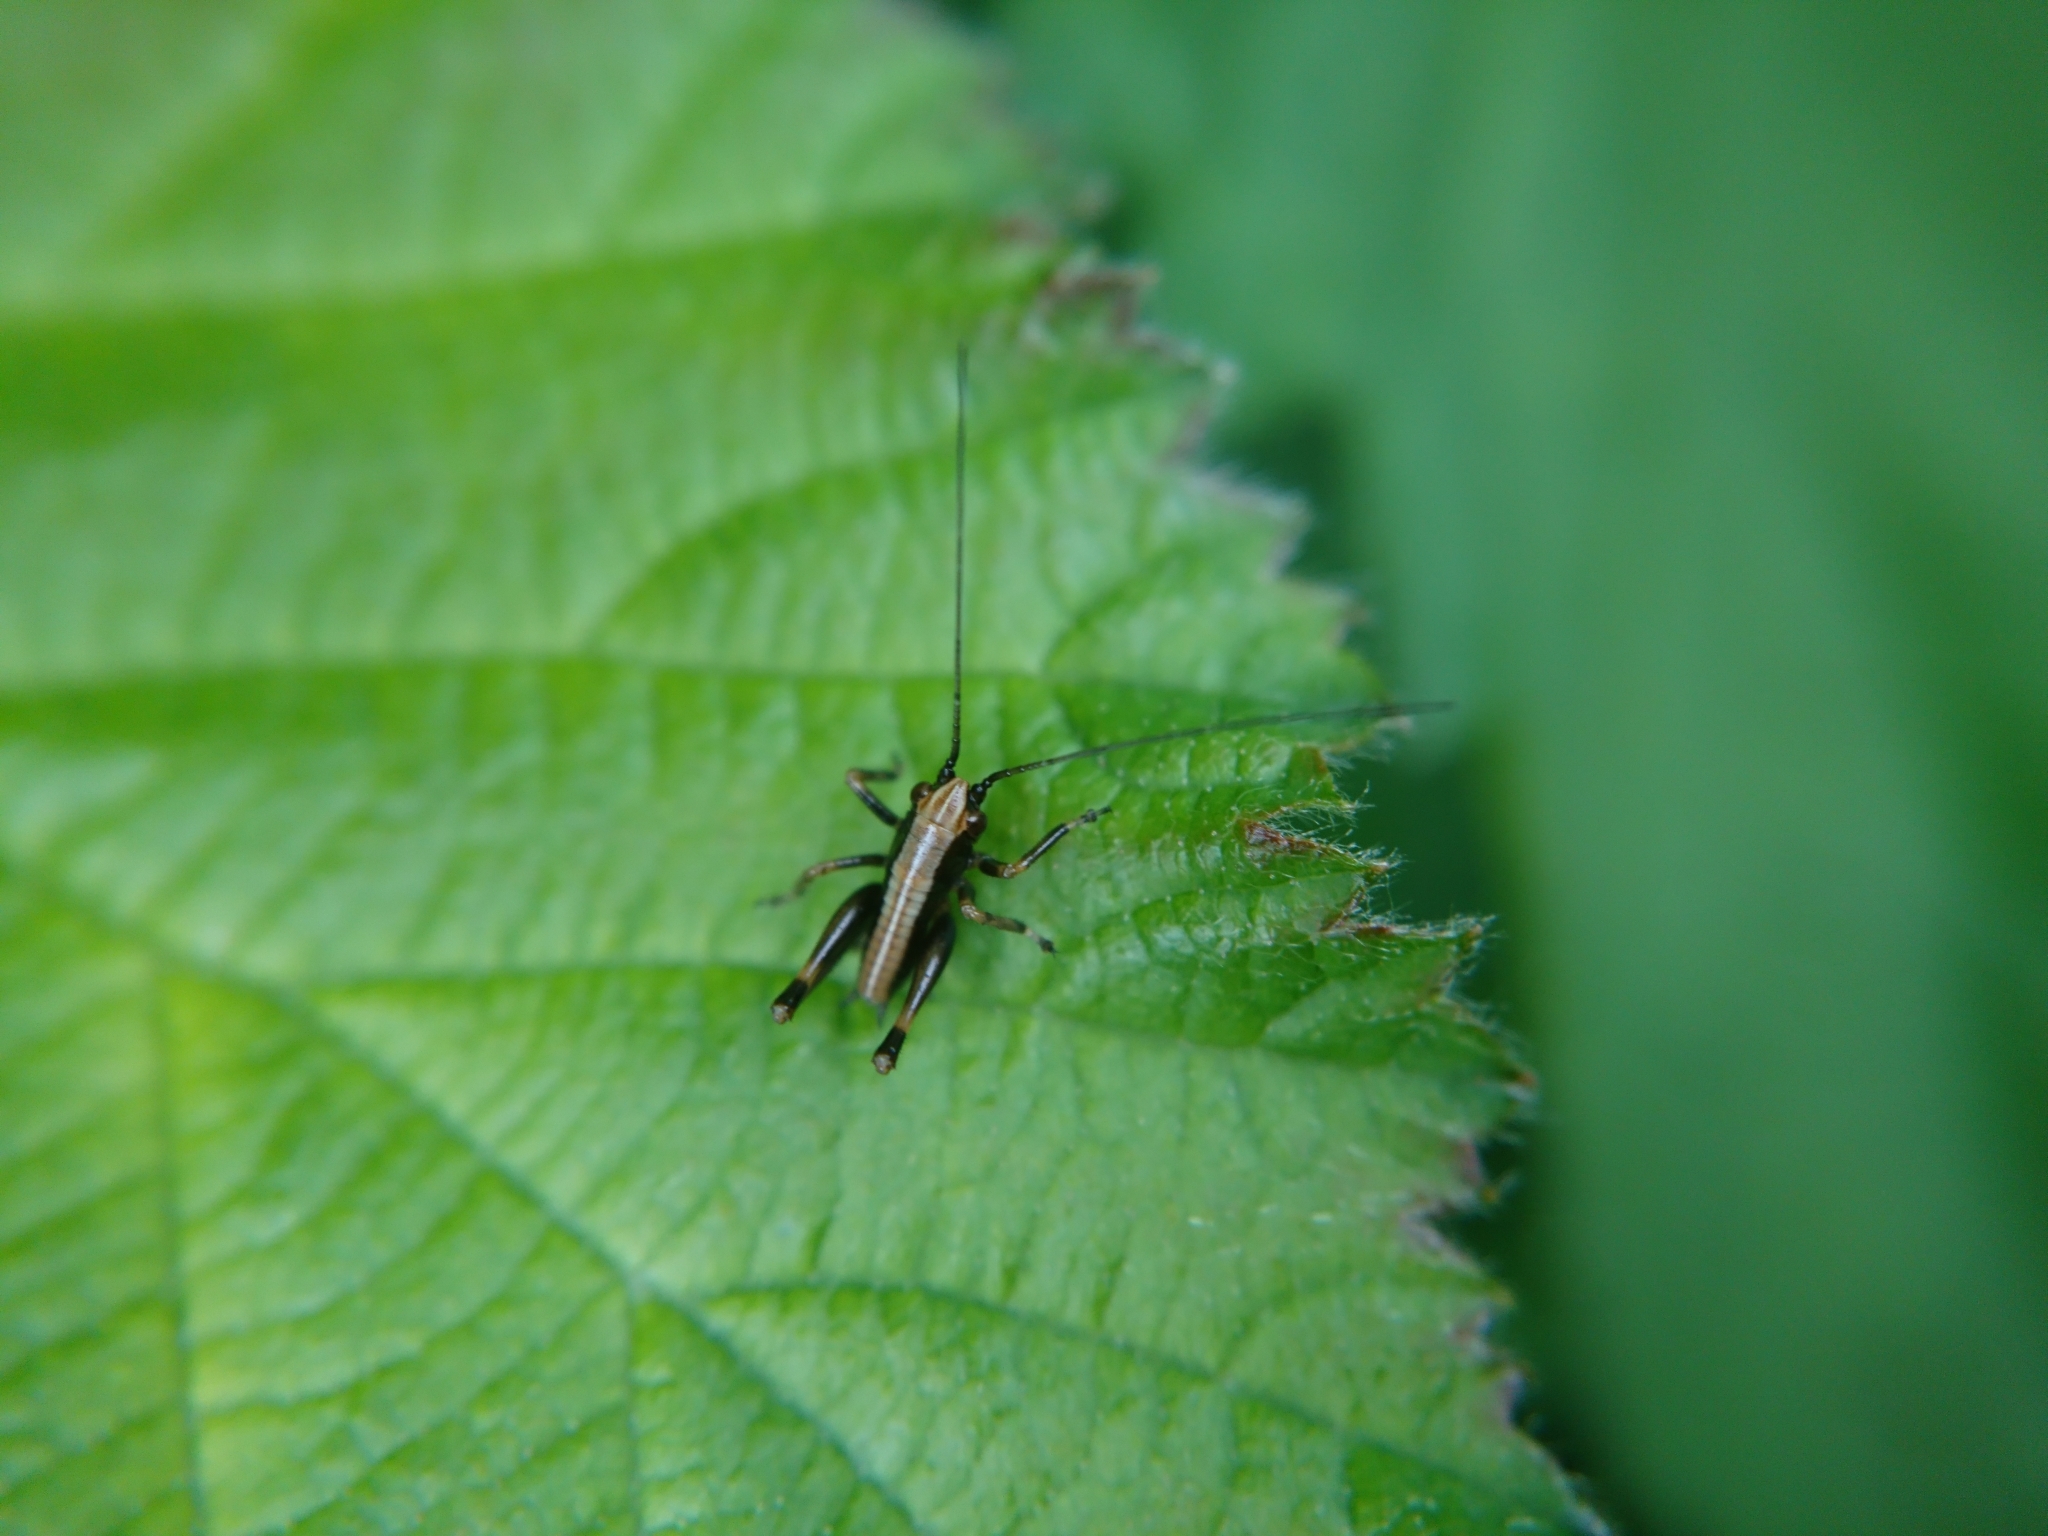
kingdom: Animalia
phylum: Arthropoda
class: Insecta
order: Orthoptera
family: Tettigoniidae
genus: Pholidoptera
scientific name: Pholidoptera griseoaptera
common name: Dark bush-cricket
